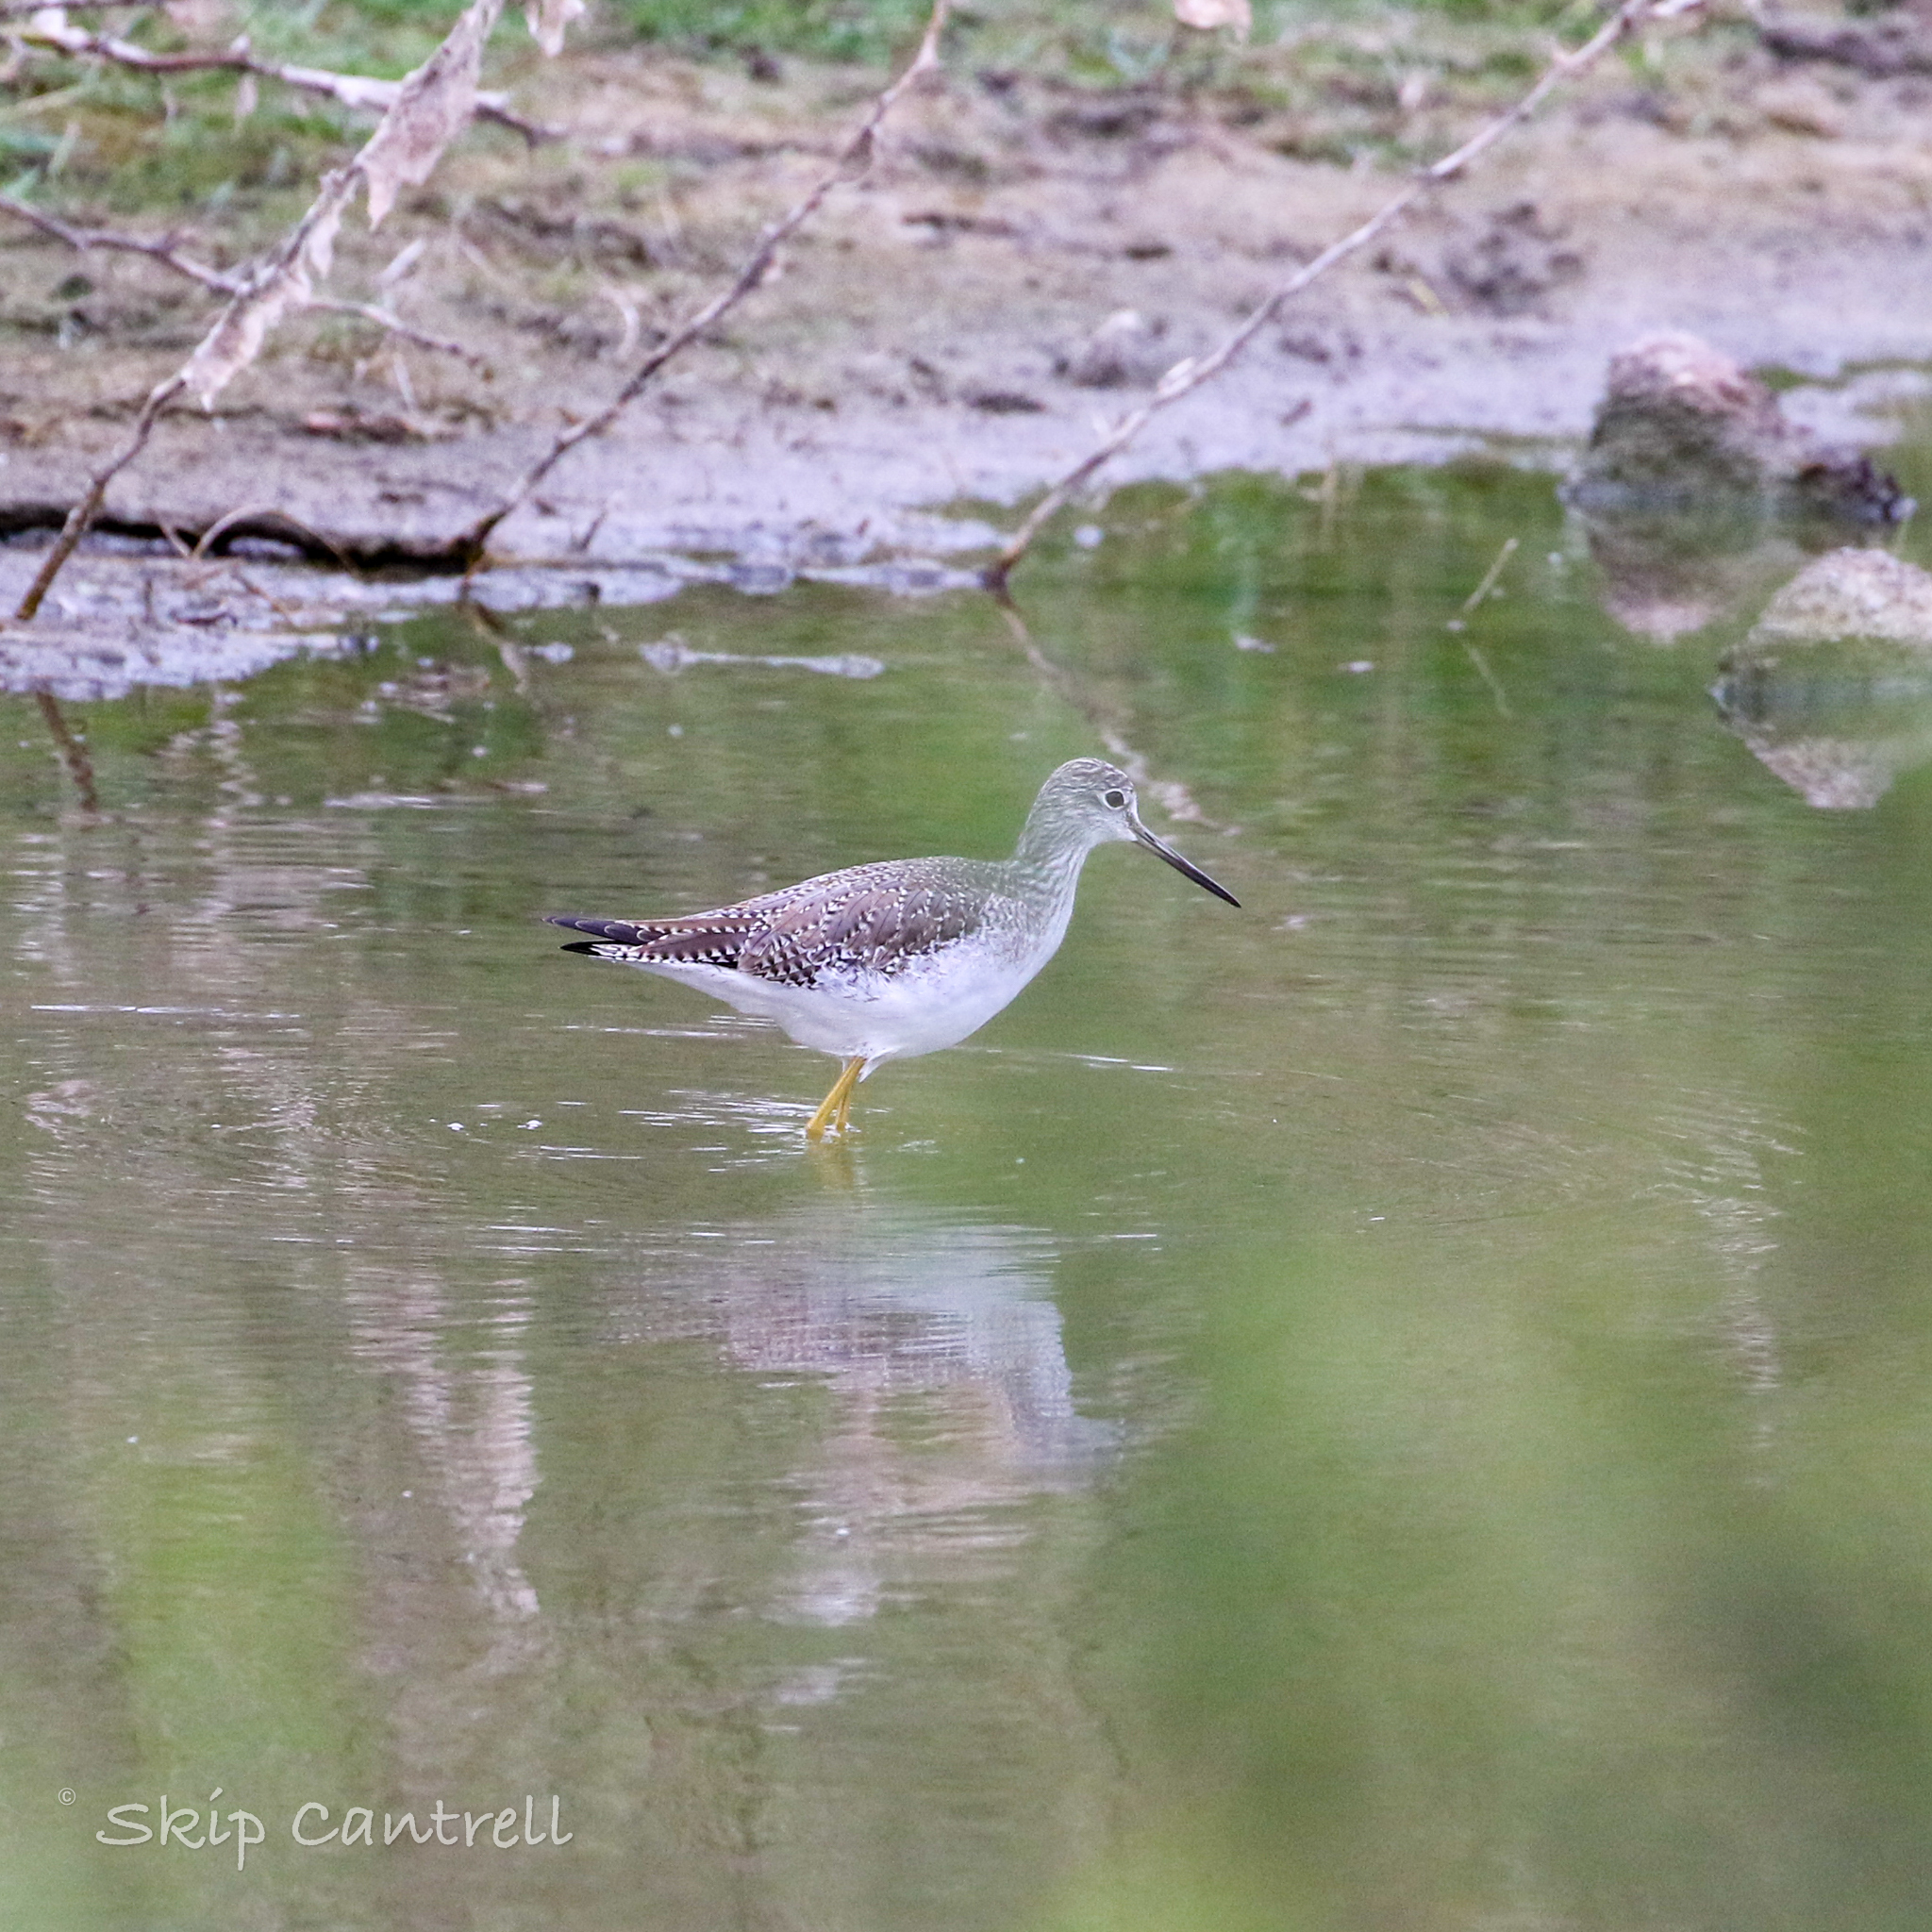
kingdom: Animalia
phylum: Chordata
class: Aves
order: Charadriiformes
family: Scolopacidae
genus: Tringa
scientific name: Tringa melanoleuca
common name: Greater yellowlegs
